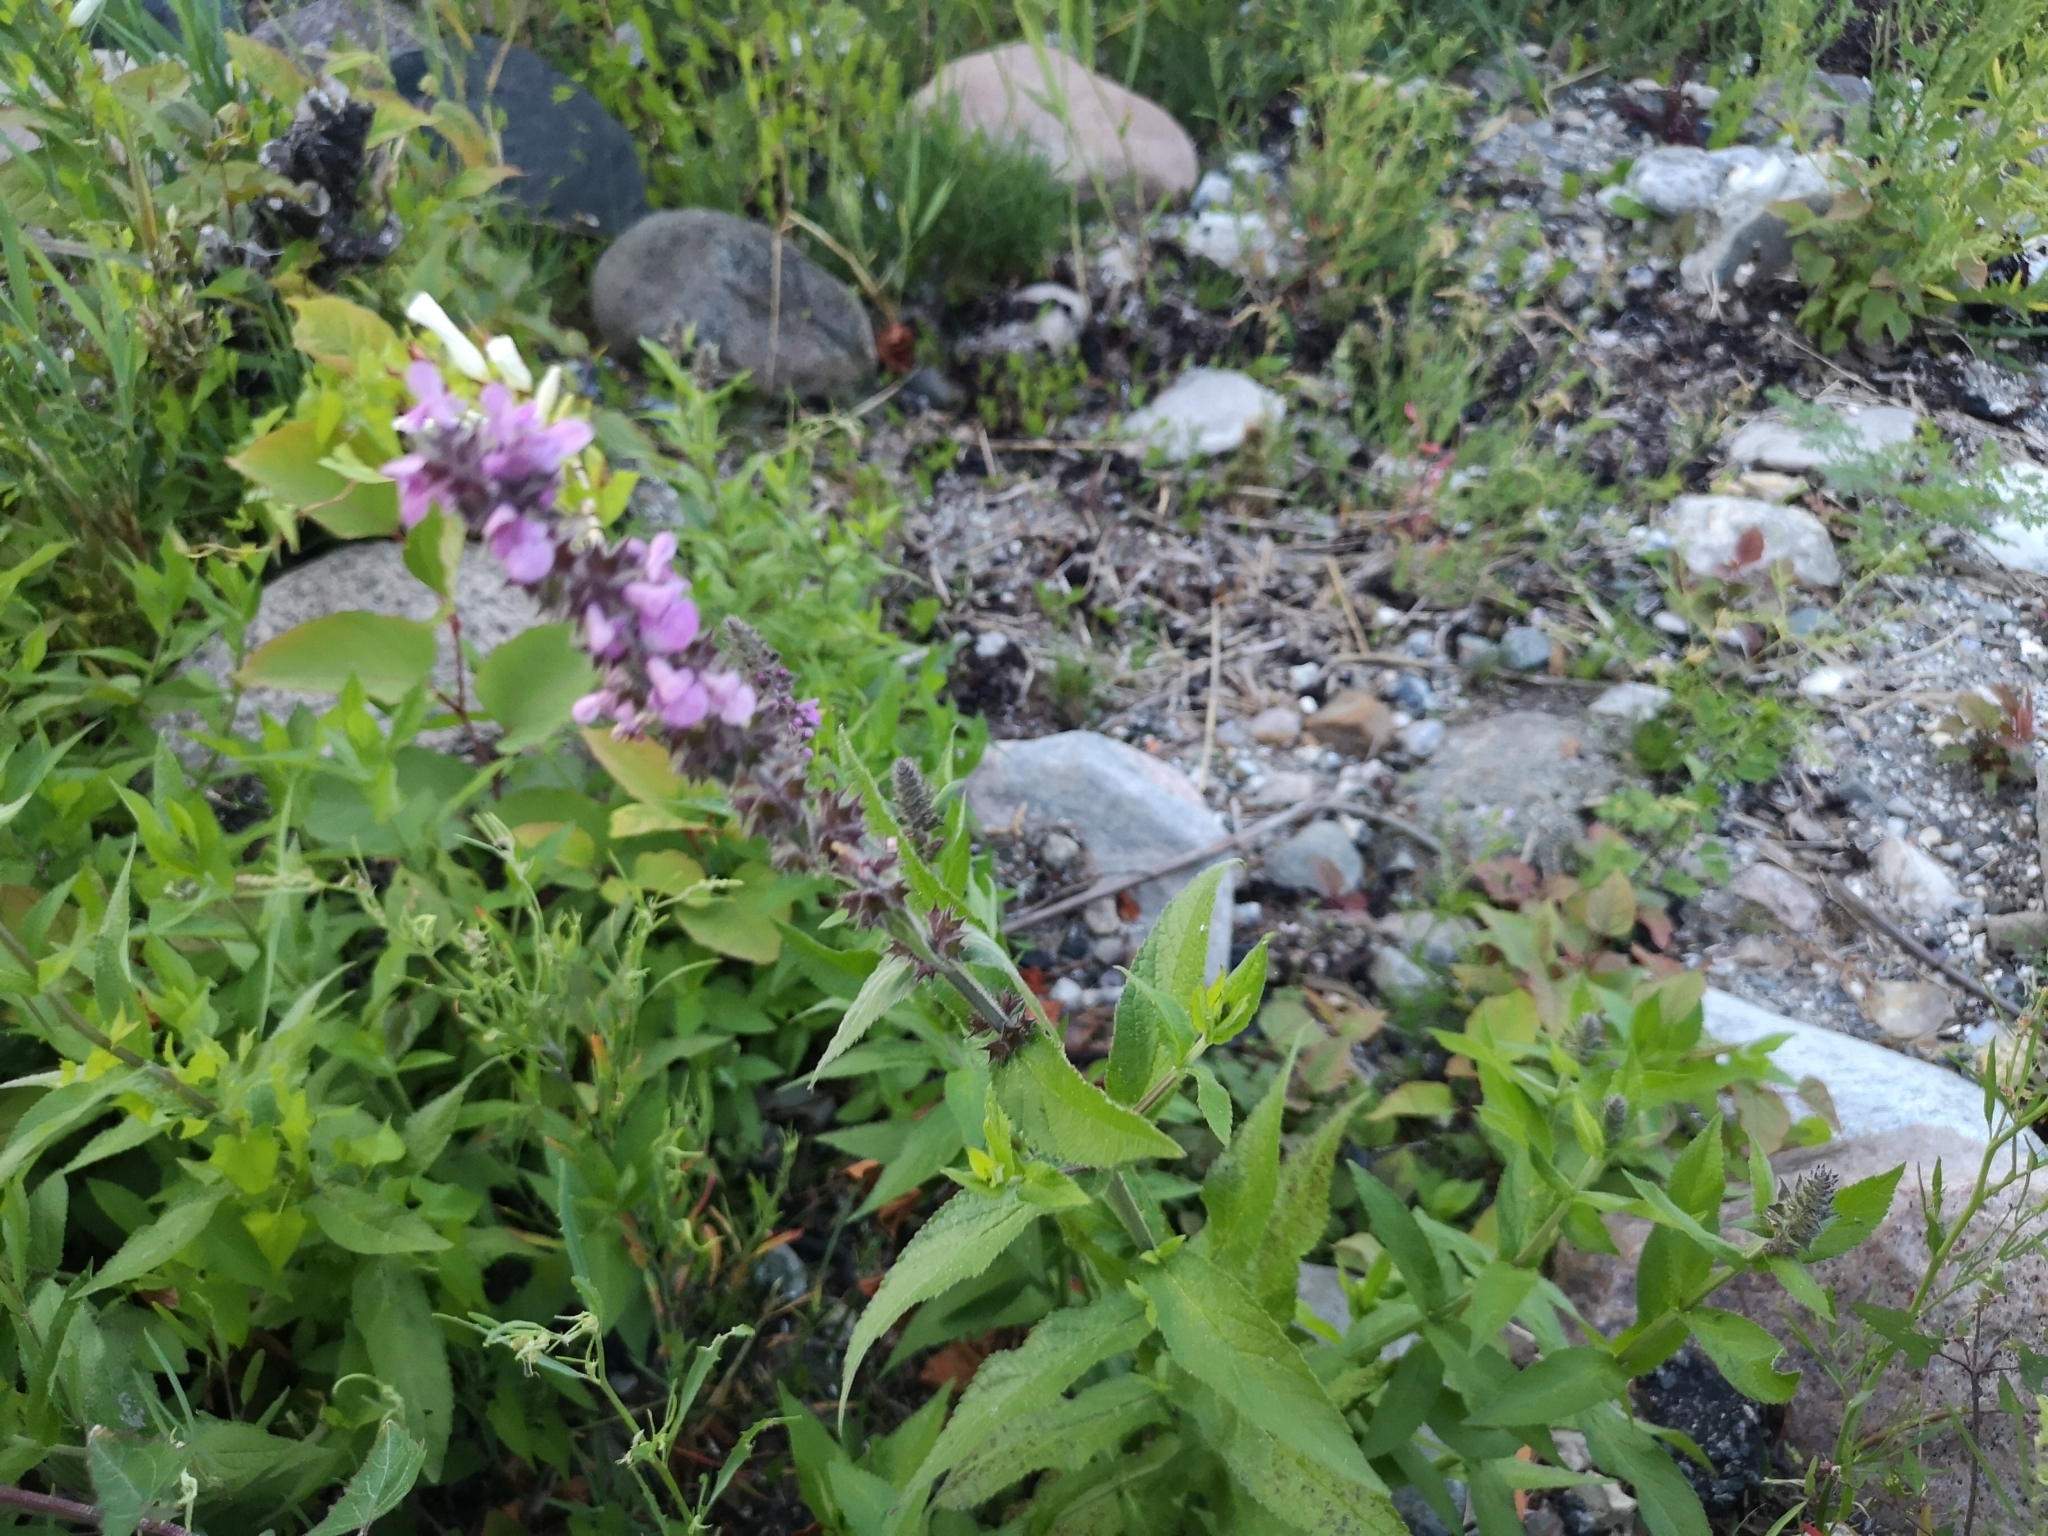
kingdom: Plantae
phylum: Tracheophyta
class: Magnoliopsida
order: Lamiales
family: Lamiaceae
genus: Stachys
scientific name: Stachys palustris
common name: Marsh woundwort
